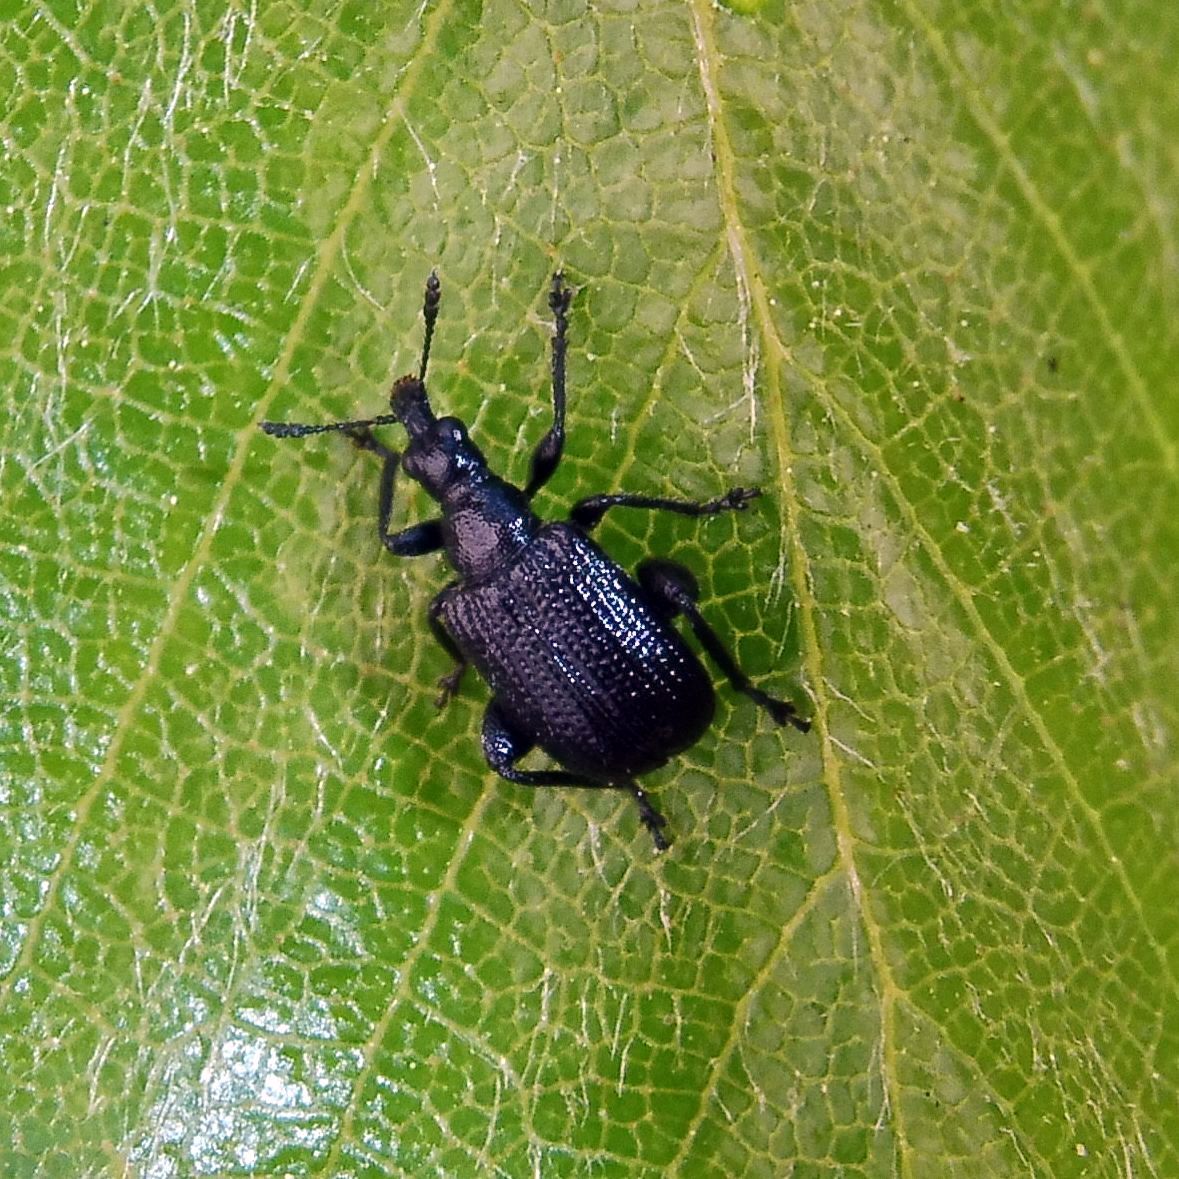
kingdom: Animalia
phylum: Arthropoda
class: Insecta
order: Coleoptera
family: Attelabidae
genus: Deporaus
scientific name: Deporaus betulae
